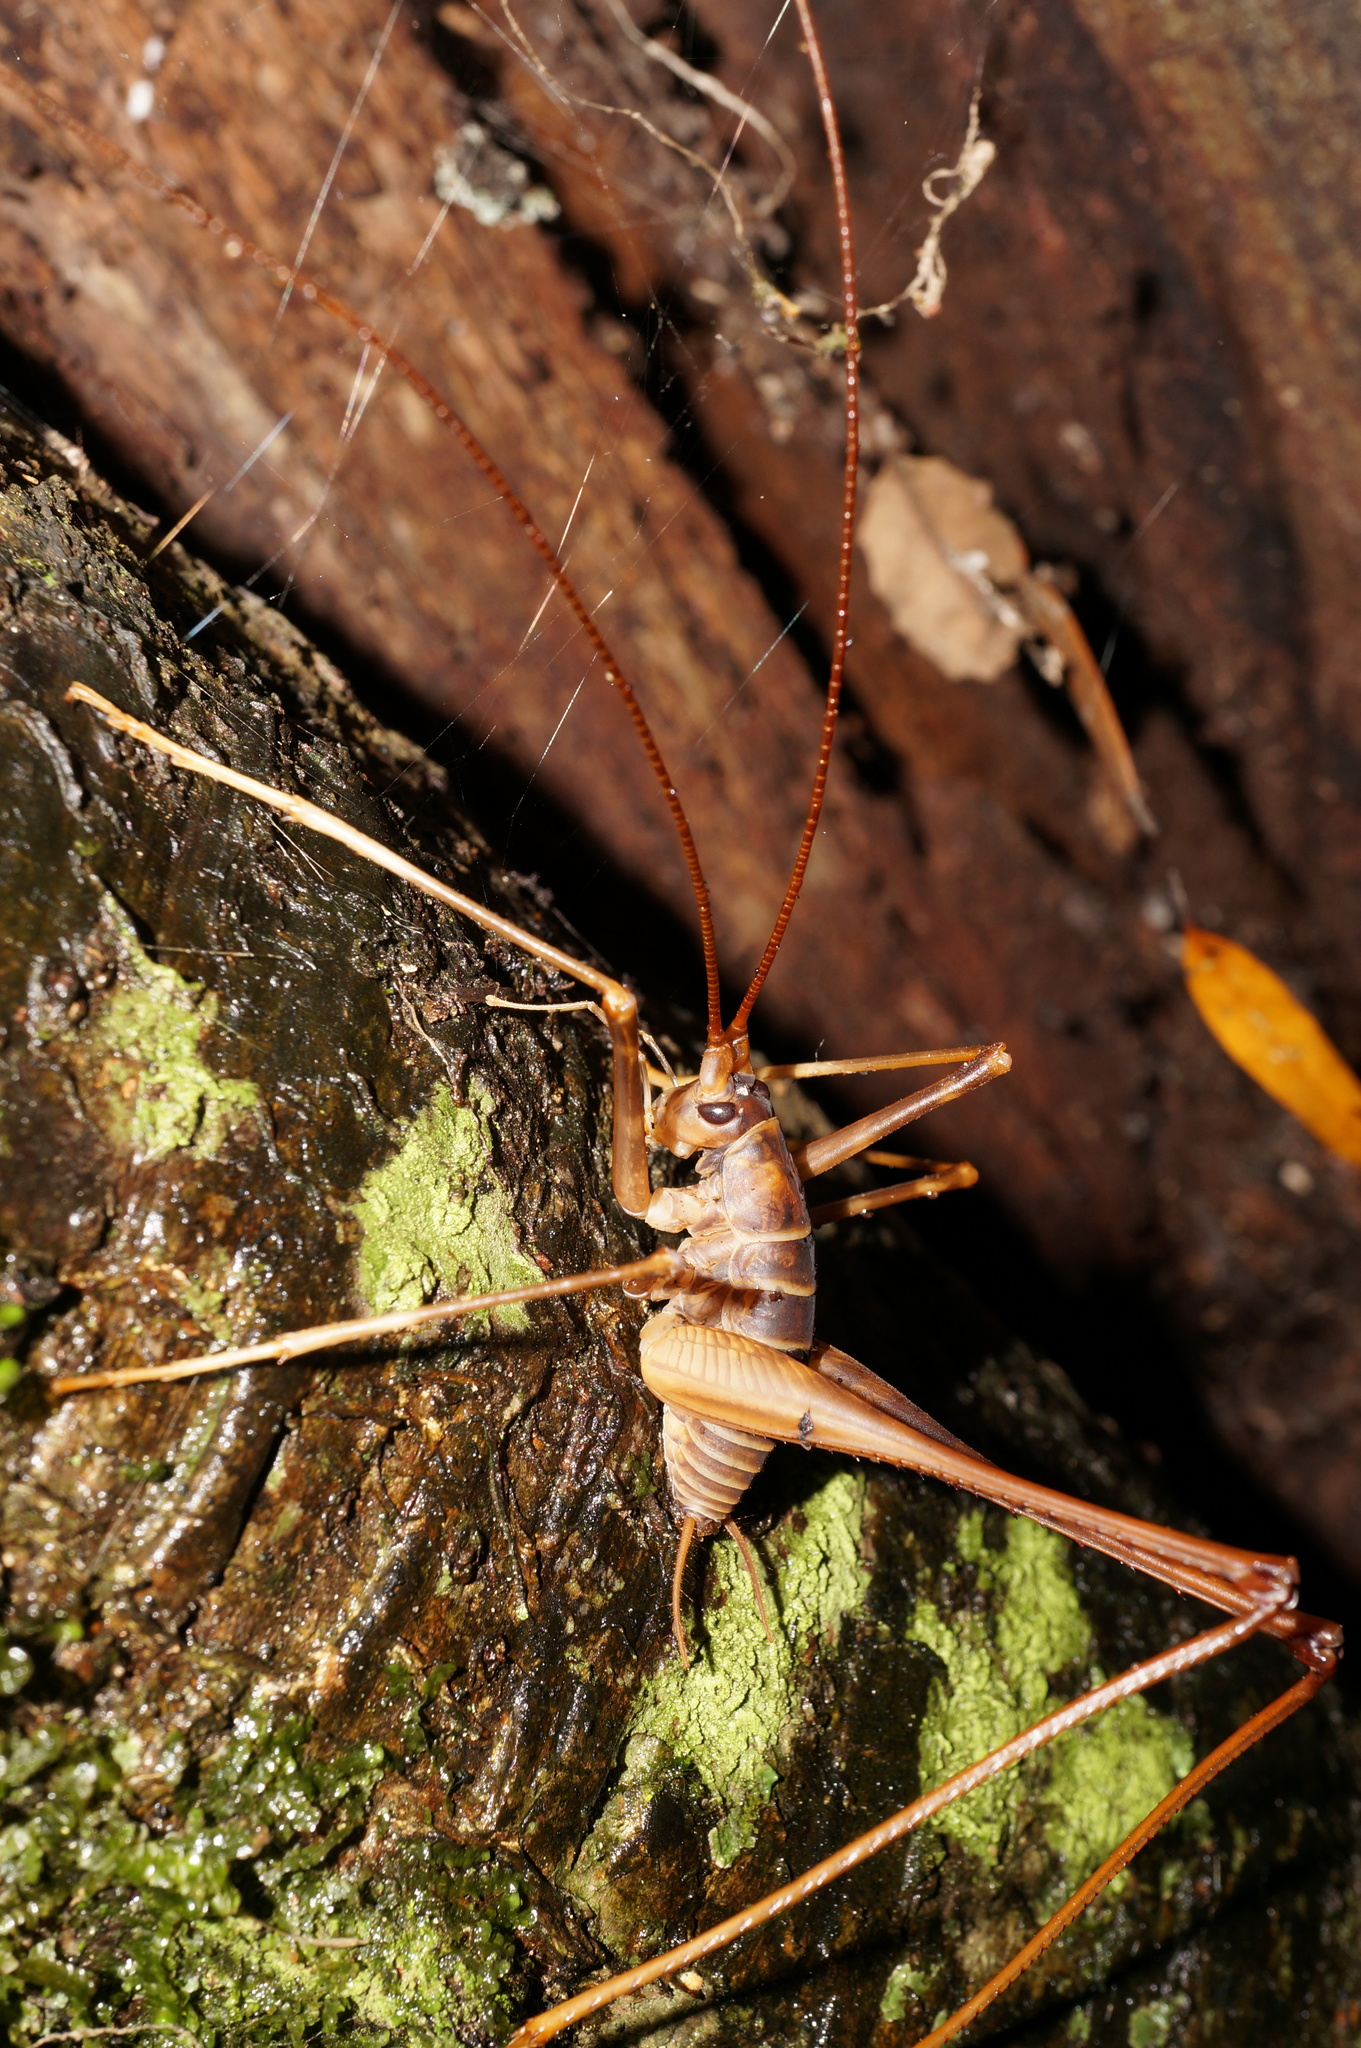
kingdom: Animalia
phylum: Arthropoda
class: Insecta
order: Orthoptera
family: Rhaphidophoridae
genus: Pachyrhamma
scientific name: Pachyrhamma acanthocera
